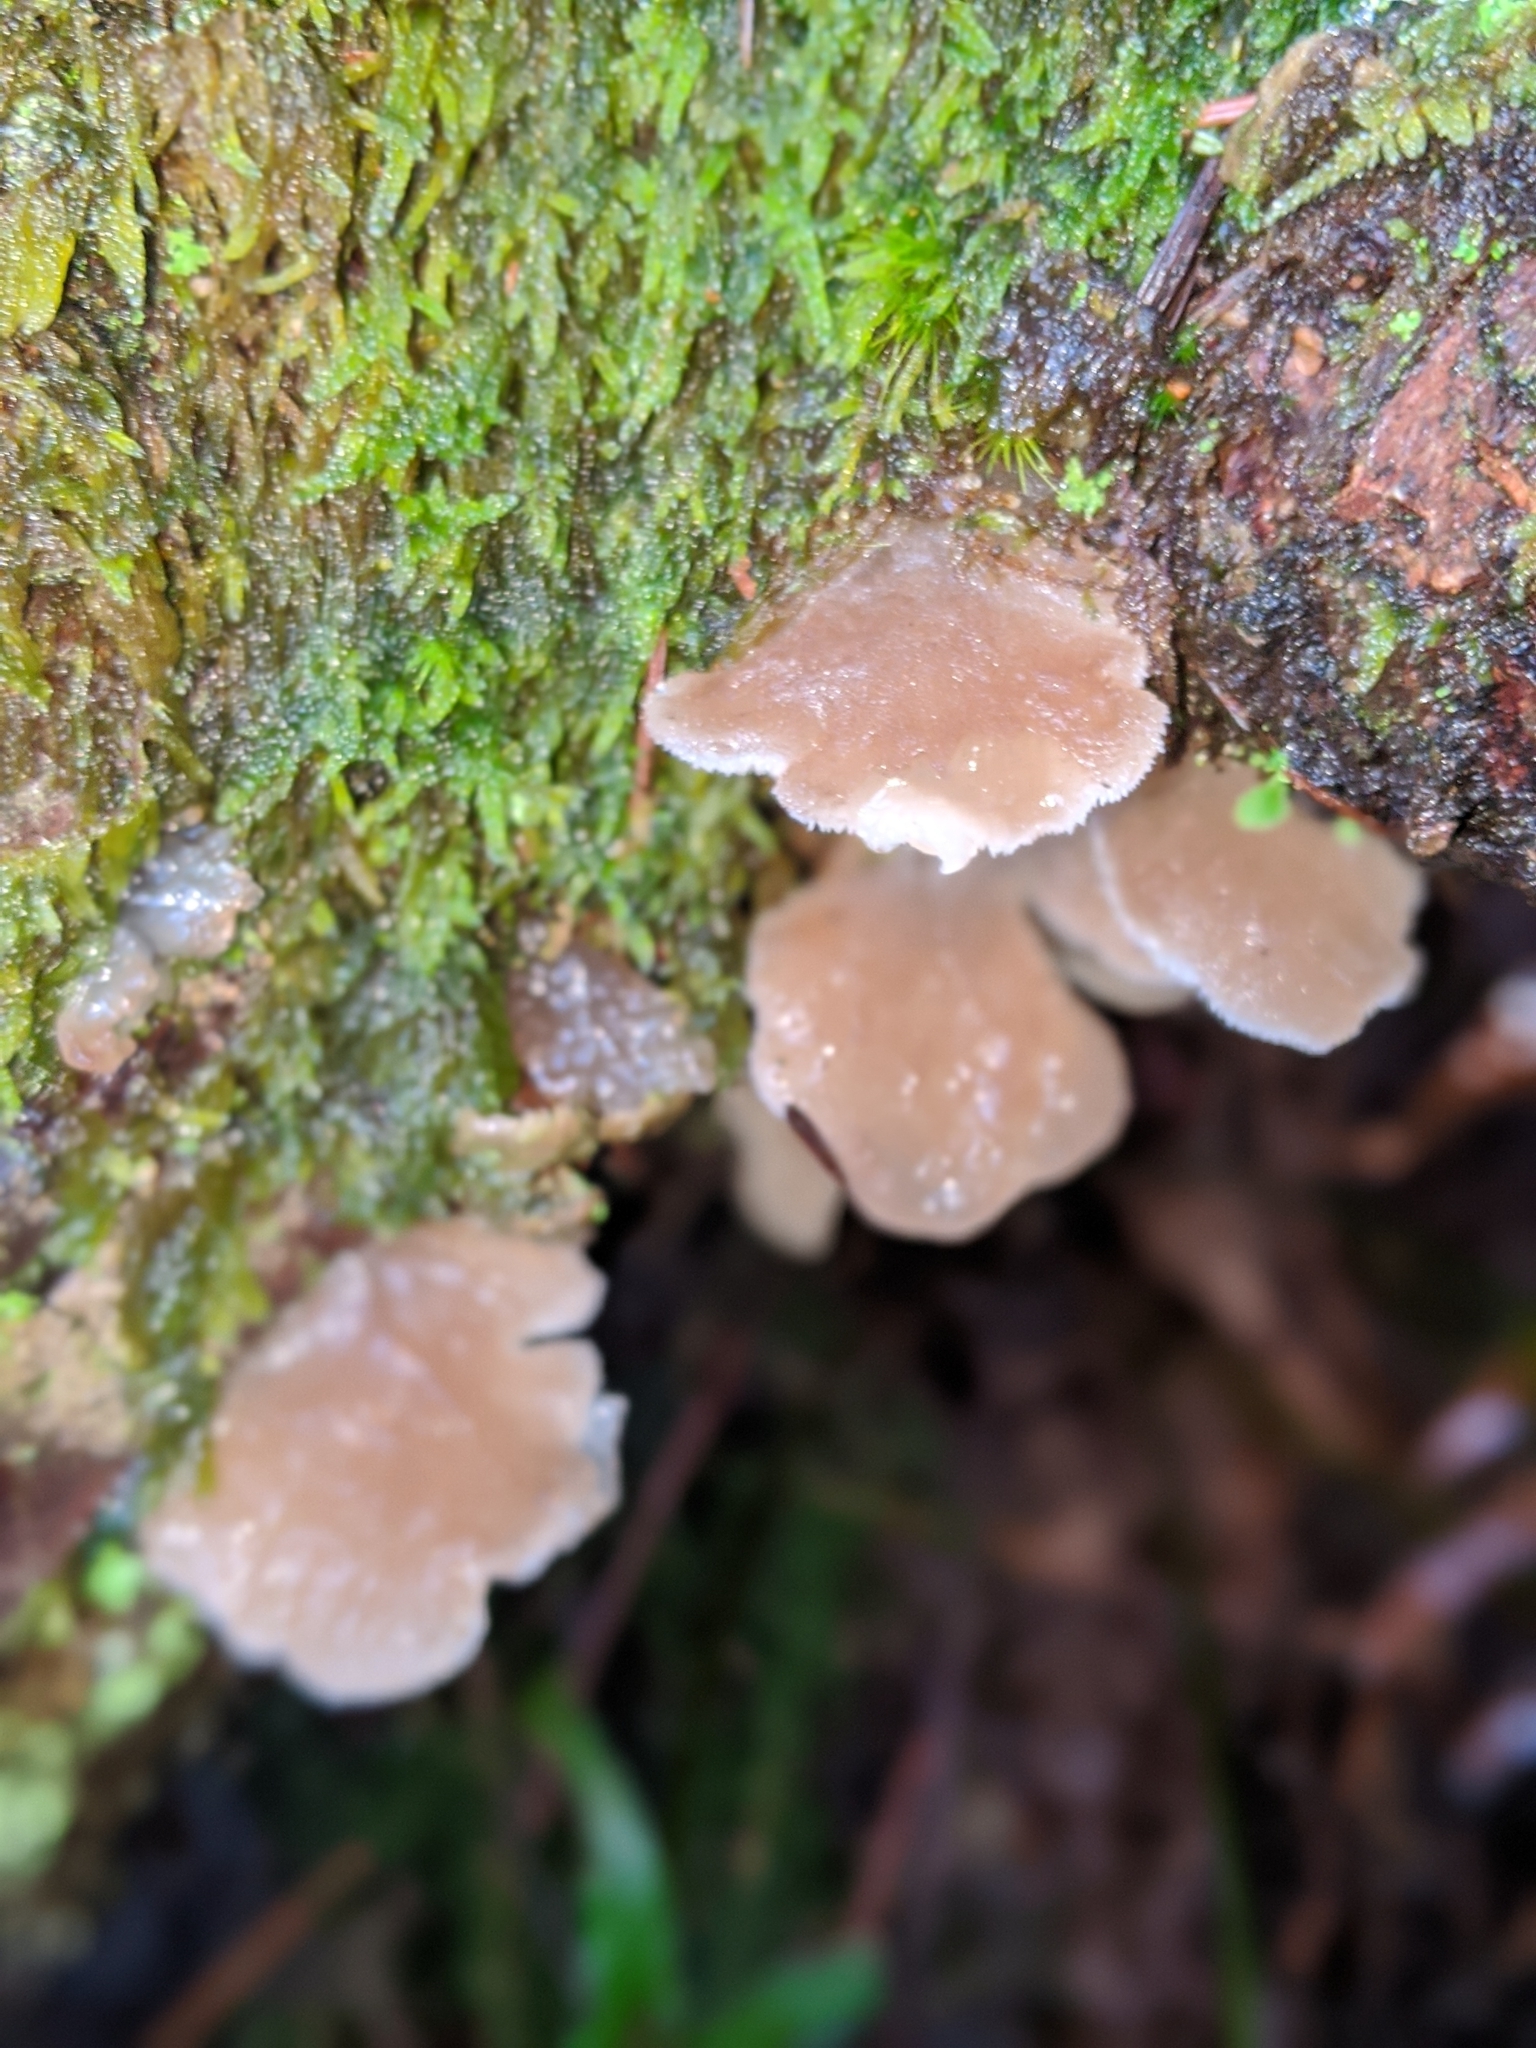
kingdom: Fungi
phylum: Basidiomycota
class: Agaricomycetes
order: Auriculariales
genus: Pseudohydnum
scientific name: Pseudohydnum gelatinosum
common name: Jelly tongue
